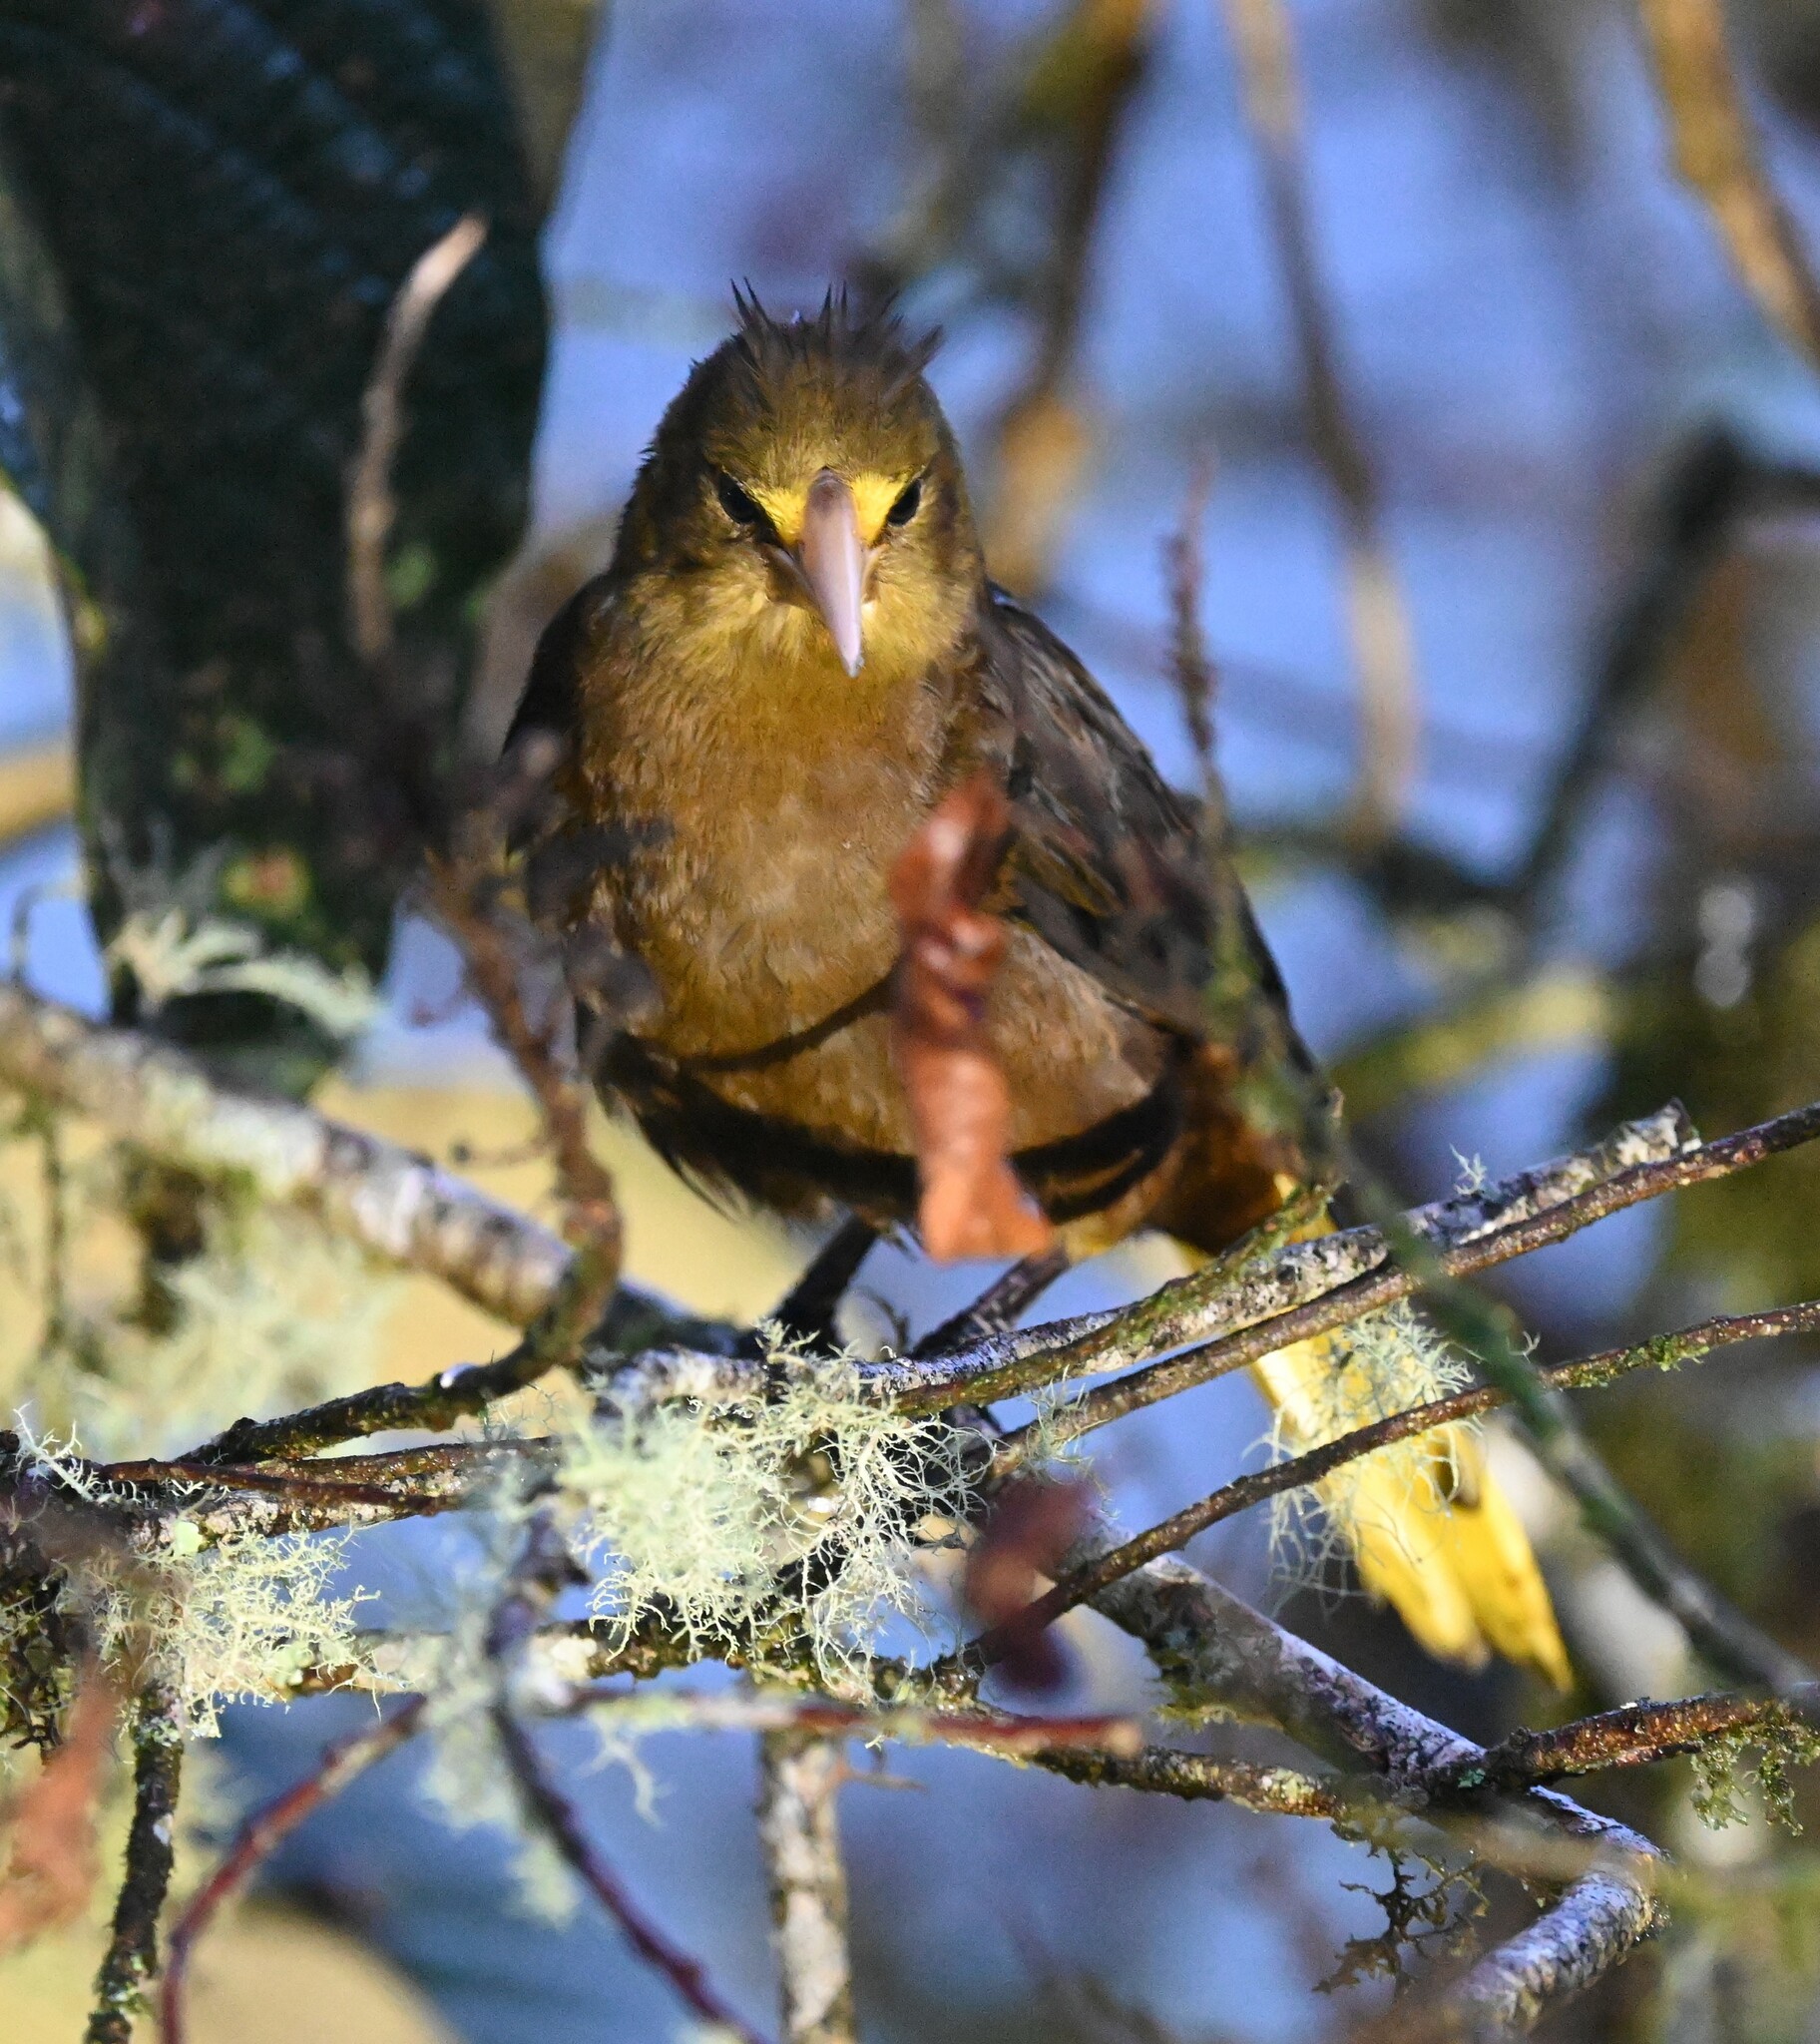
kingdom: Animalia
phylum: Chordata
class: Aves
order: Passeriformes
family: Icteridae
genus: Psarocolius
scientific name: Psarocolius angustifrons
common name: Russet-backed oropendola
